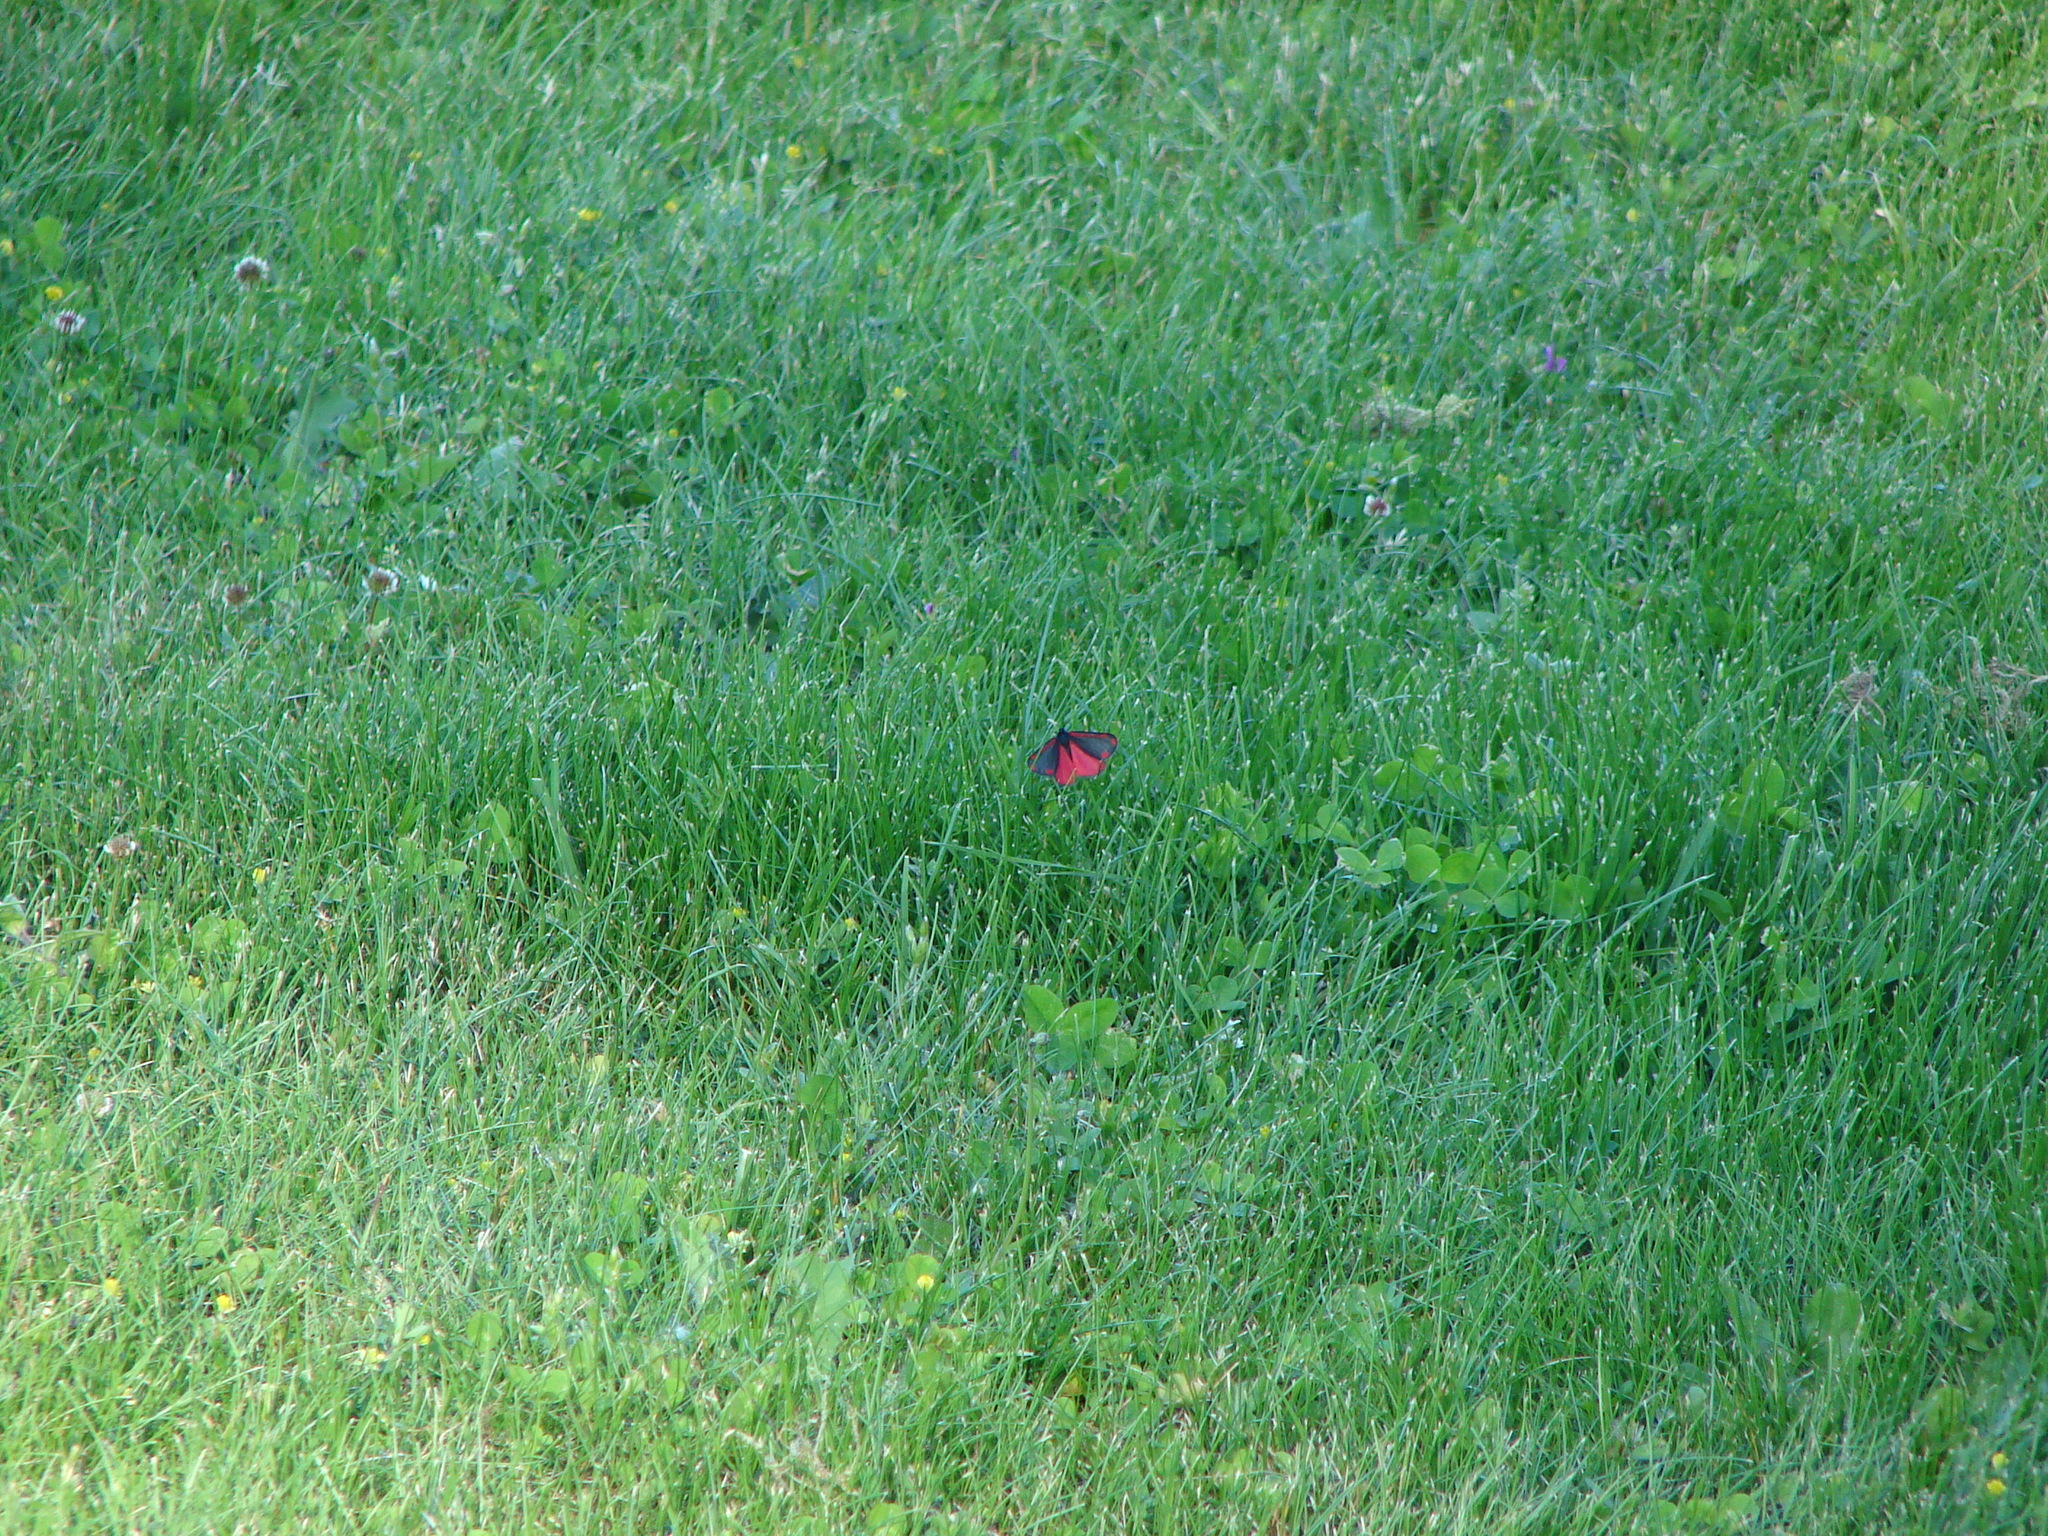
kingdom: Animalia
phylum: Arthropoda
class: Insecta
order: Lepidoptera
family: Erebidae
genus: Tyria
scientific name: Tyria jacobaeae
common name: Cinnabar
